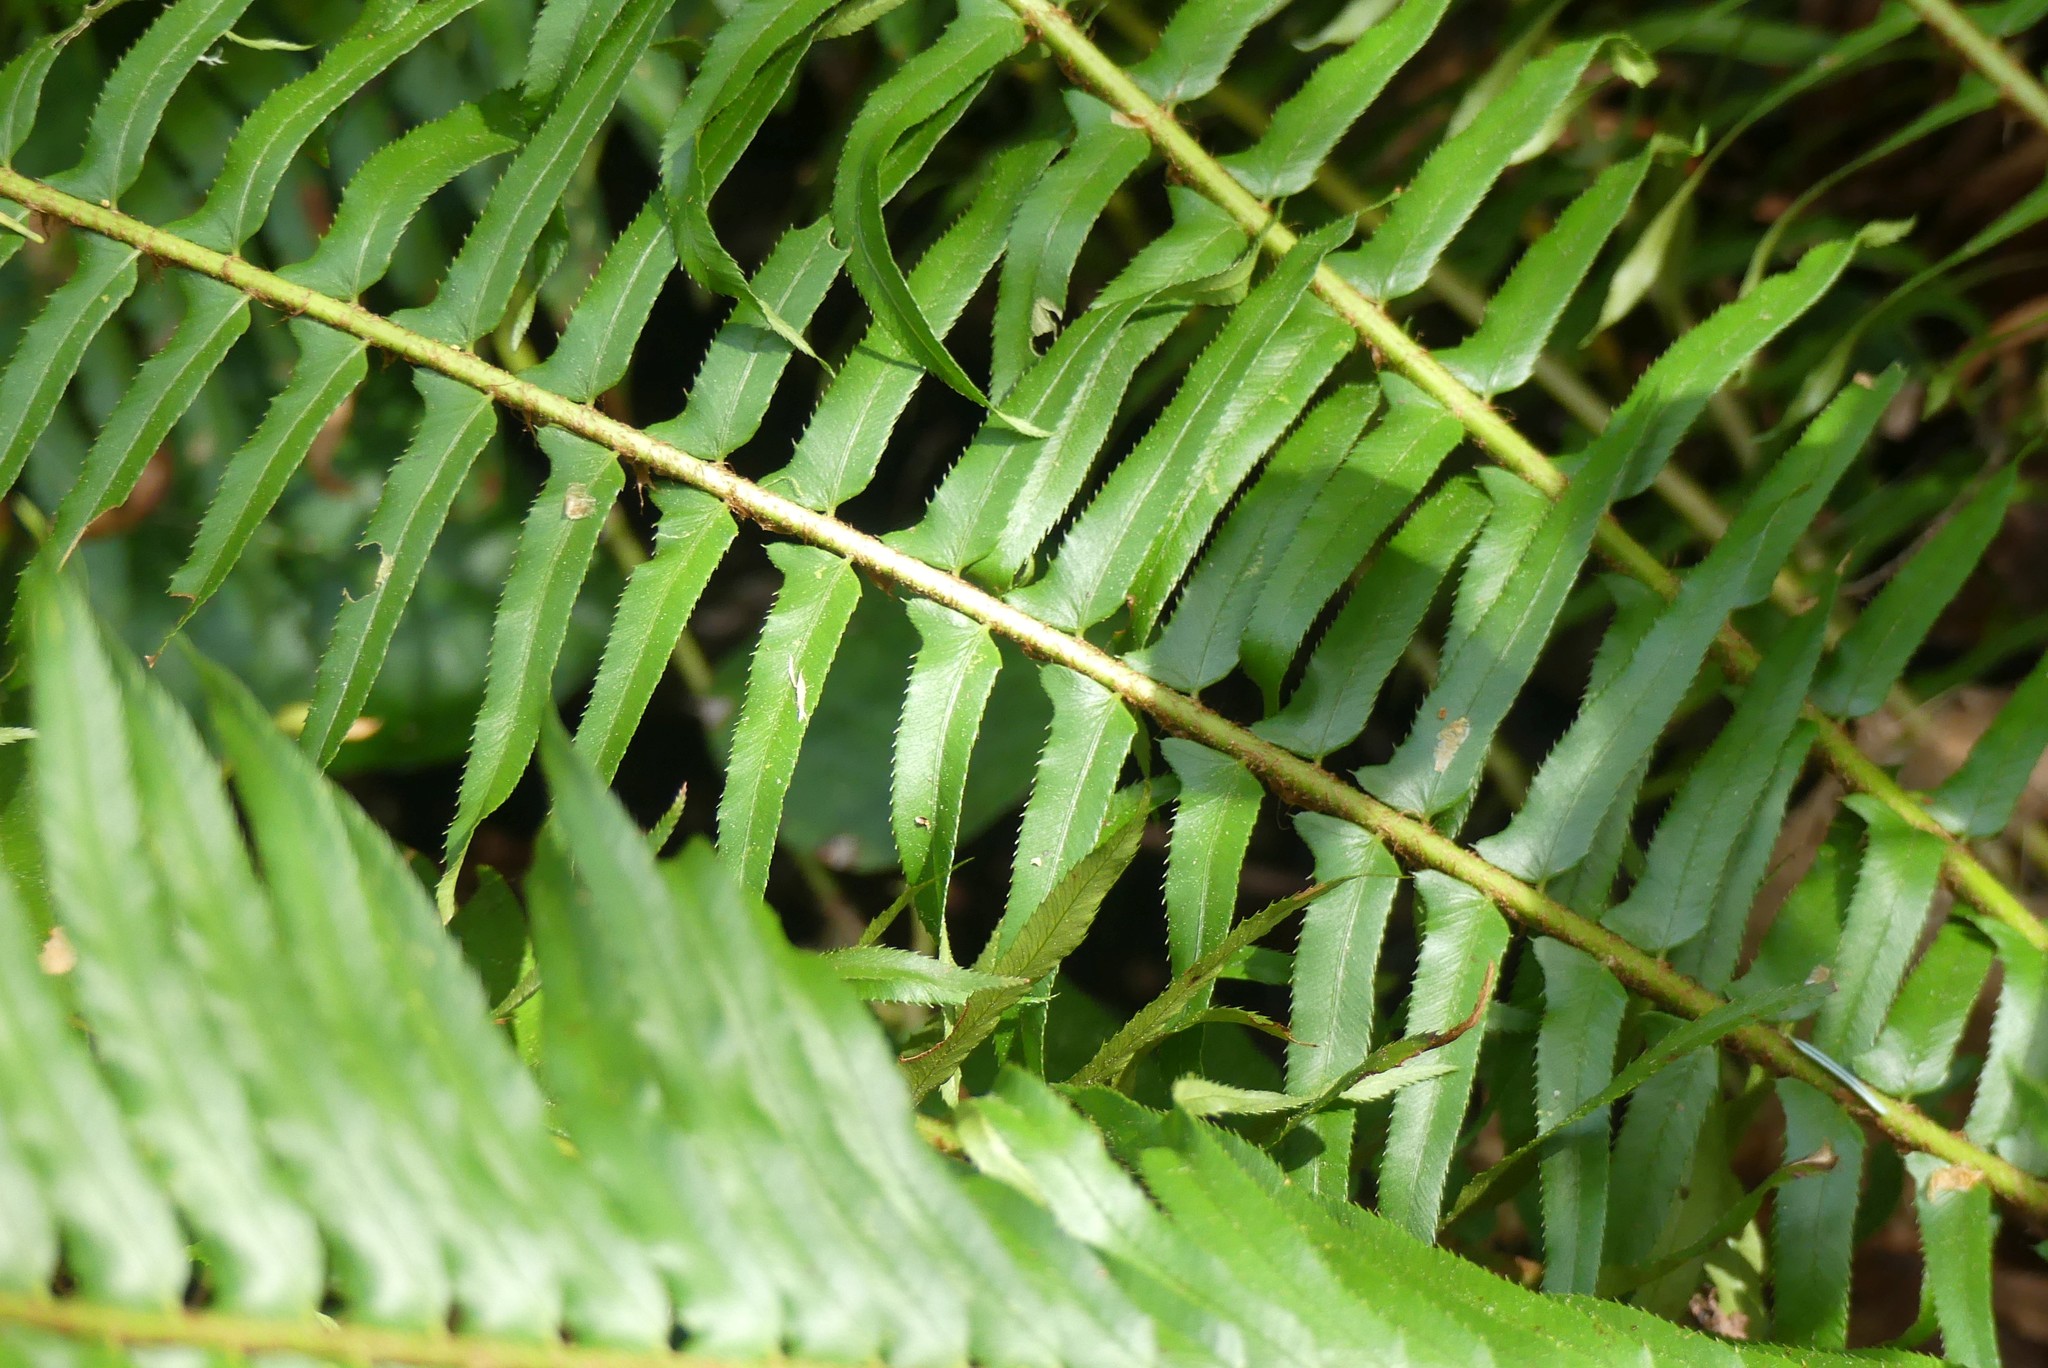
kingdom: Plantae
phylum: Tracheophyta
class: Polypodiopsida
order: Polypodiales
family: Dryopteridaceae
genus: Polystichum
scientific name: Polystichum munitum
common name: Western sword-fern
